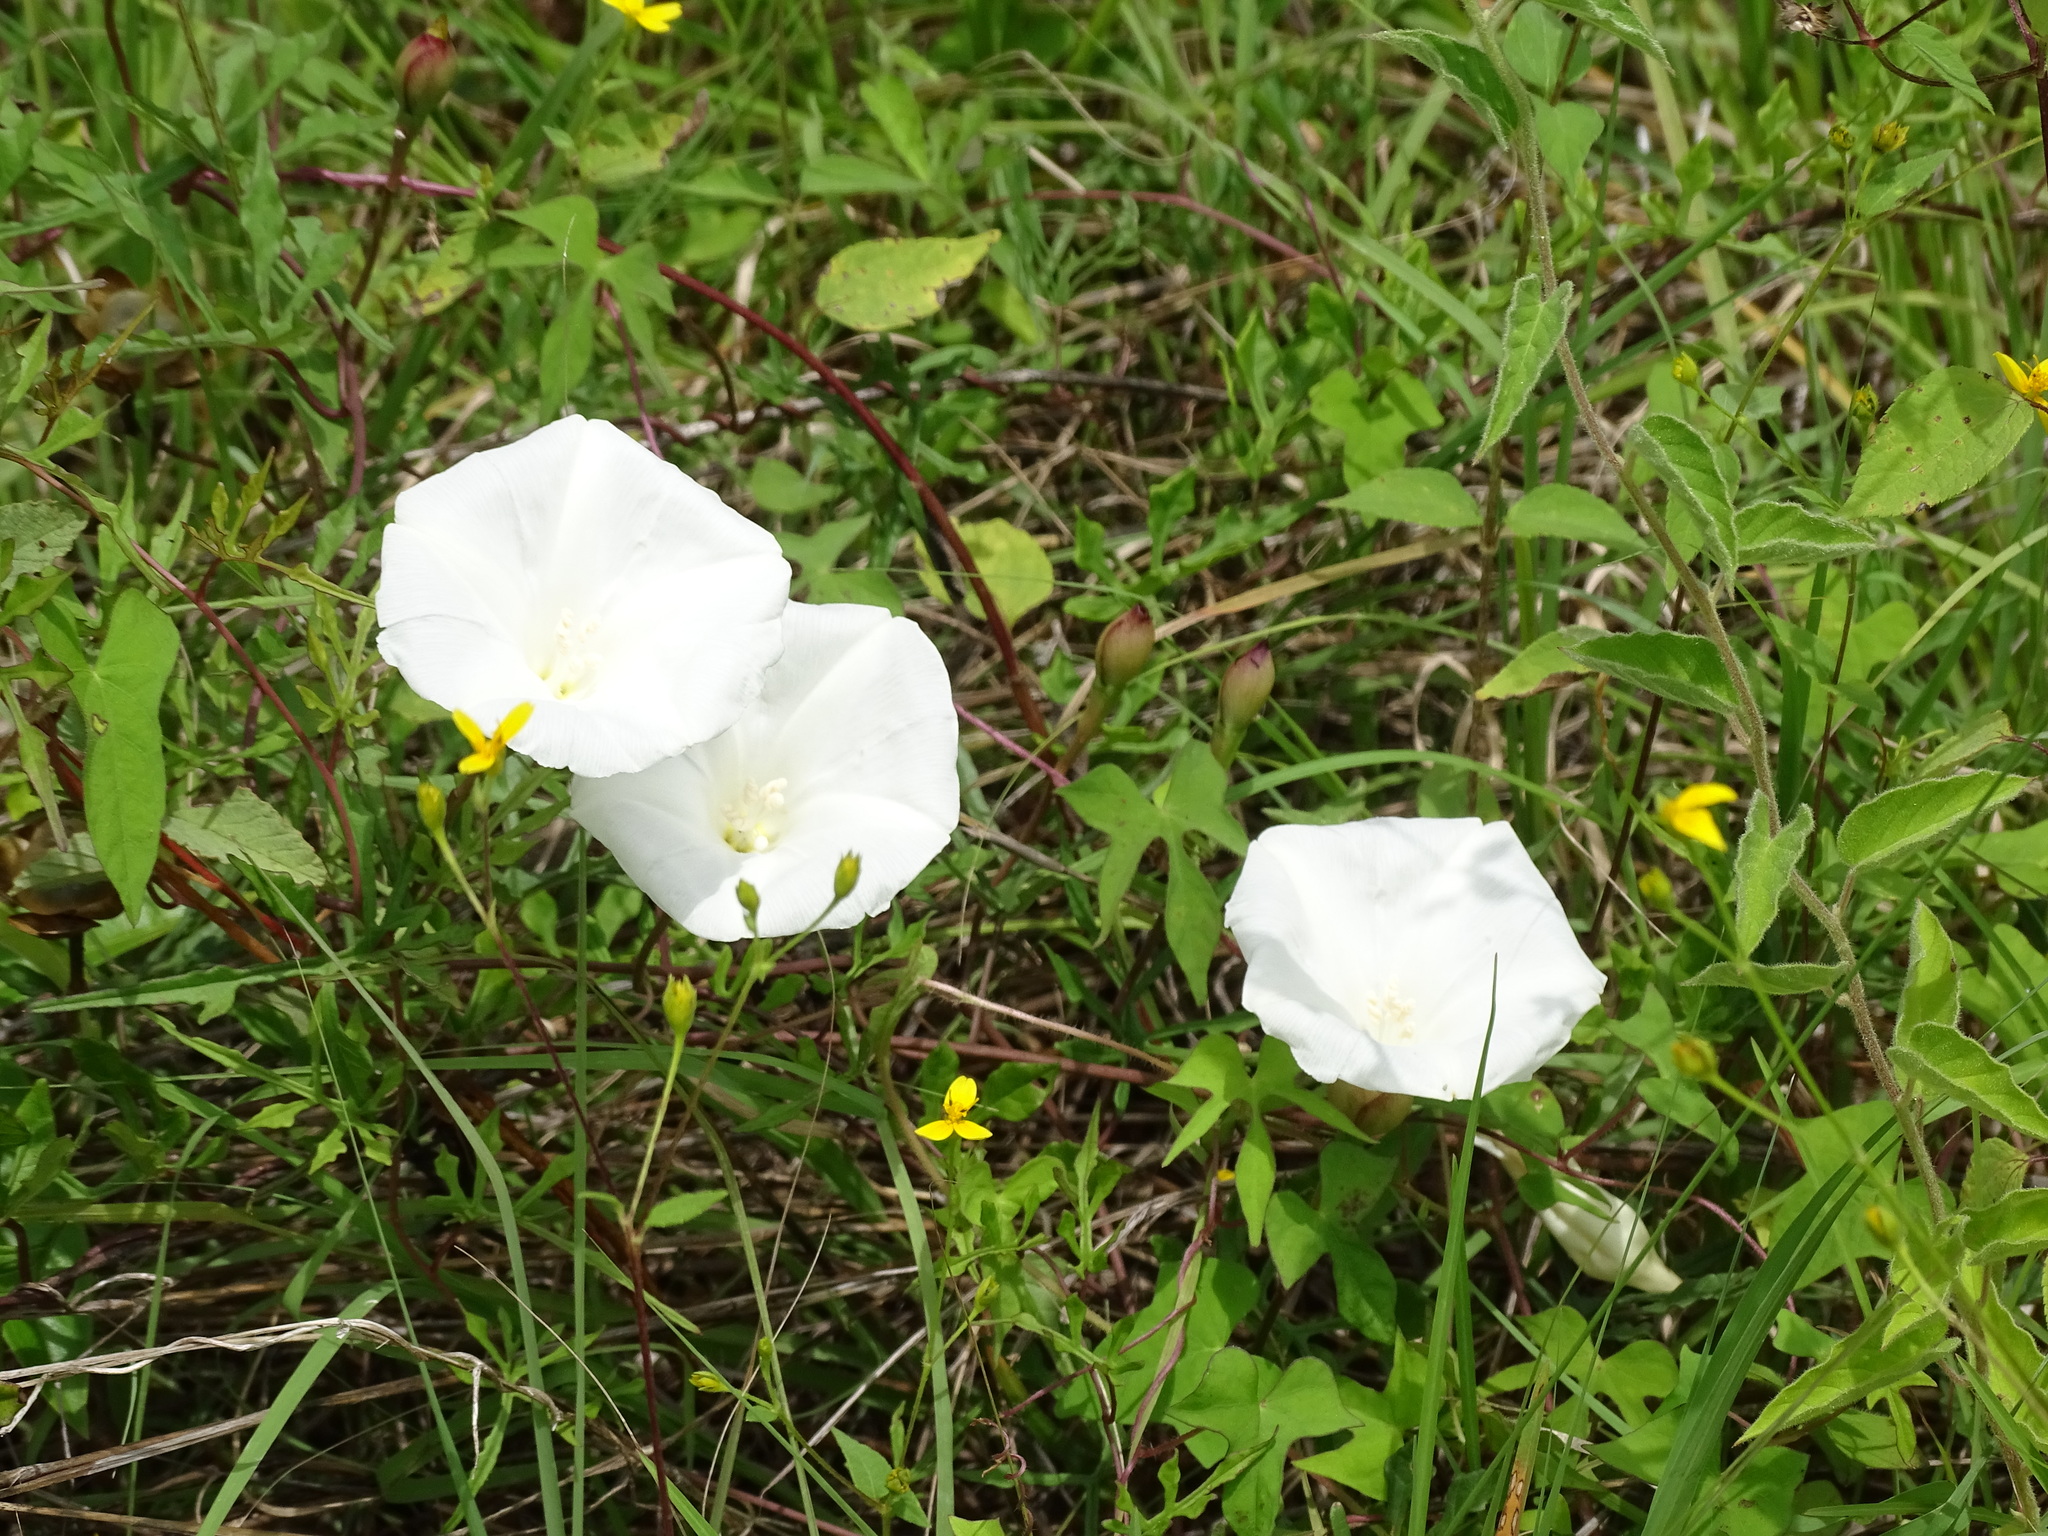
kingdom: Plantae
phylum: Tracheophyta
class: Magnoliopsida
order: Solanales
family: Convolvulaceae
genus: Operculina
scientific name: Operculina pinnatifida
